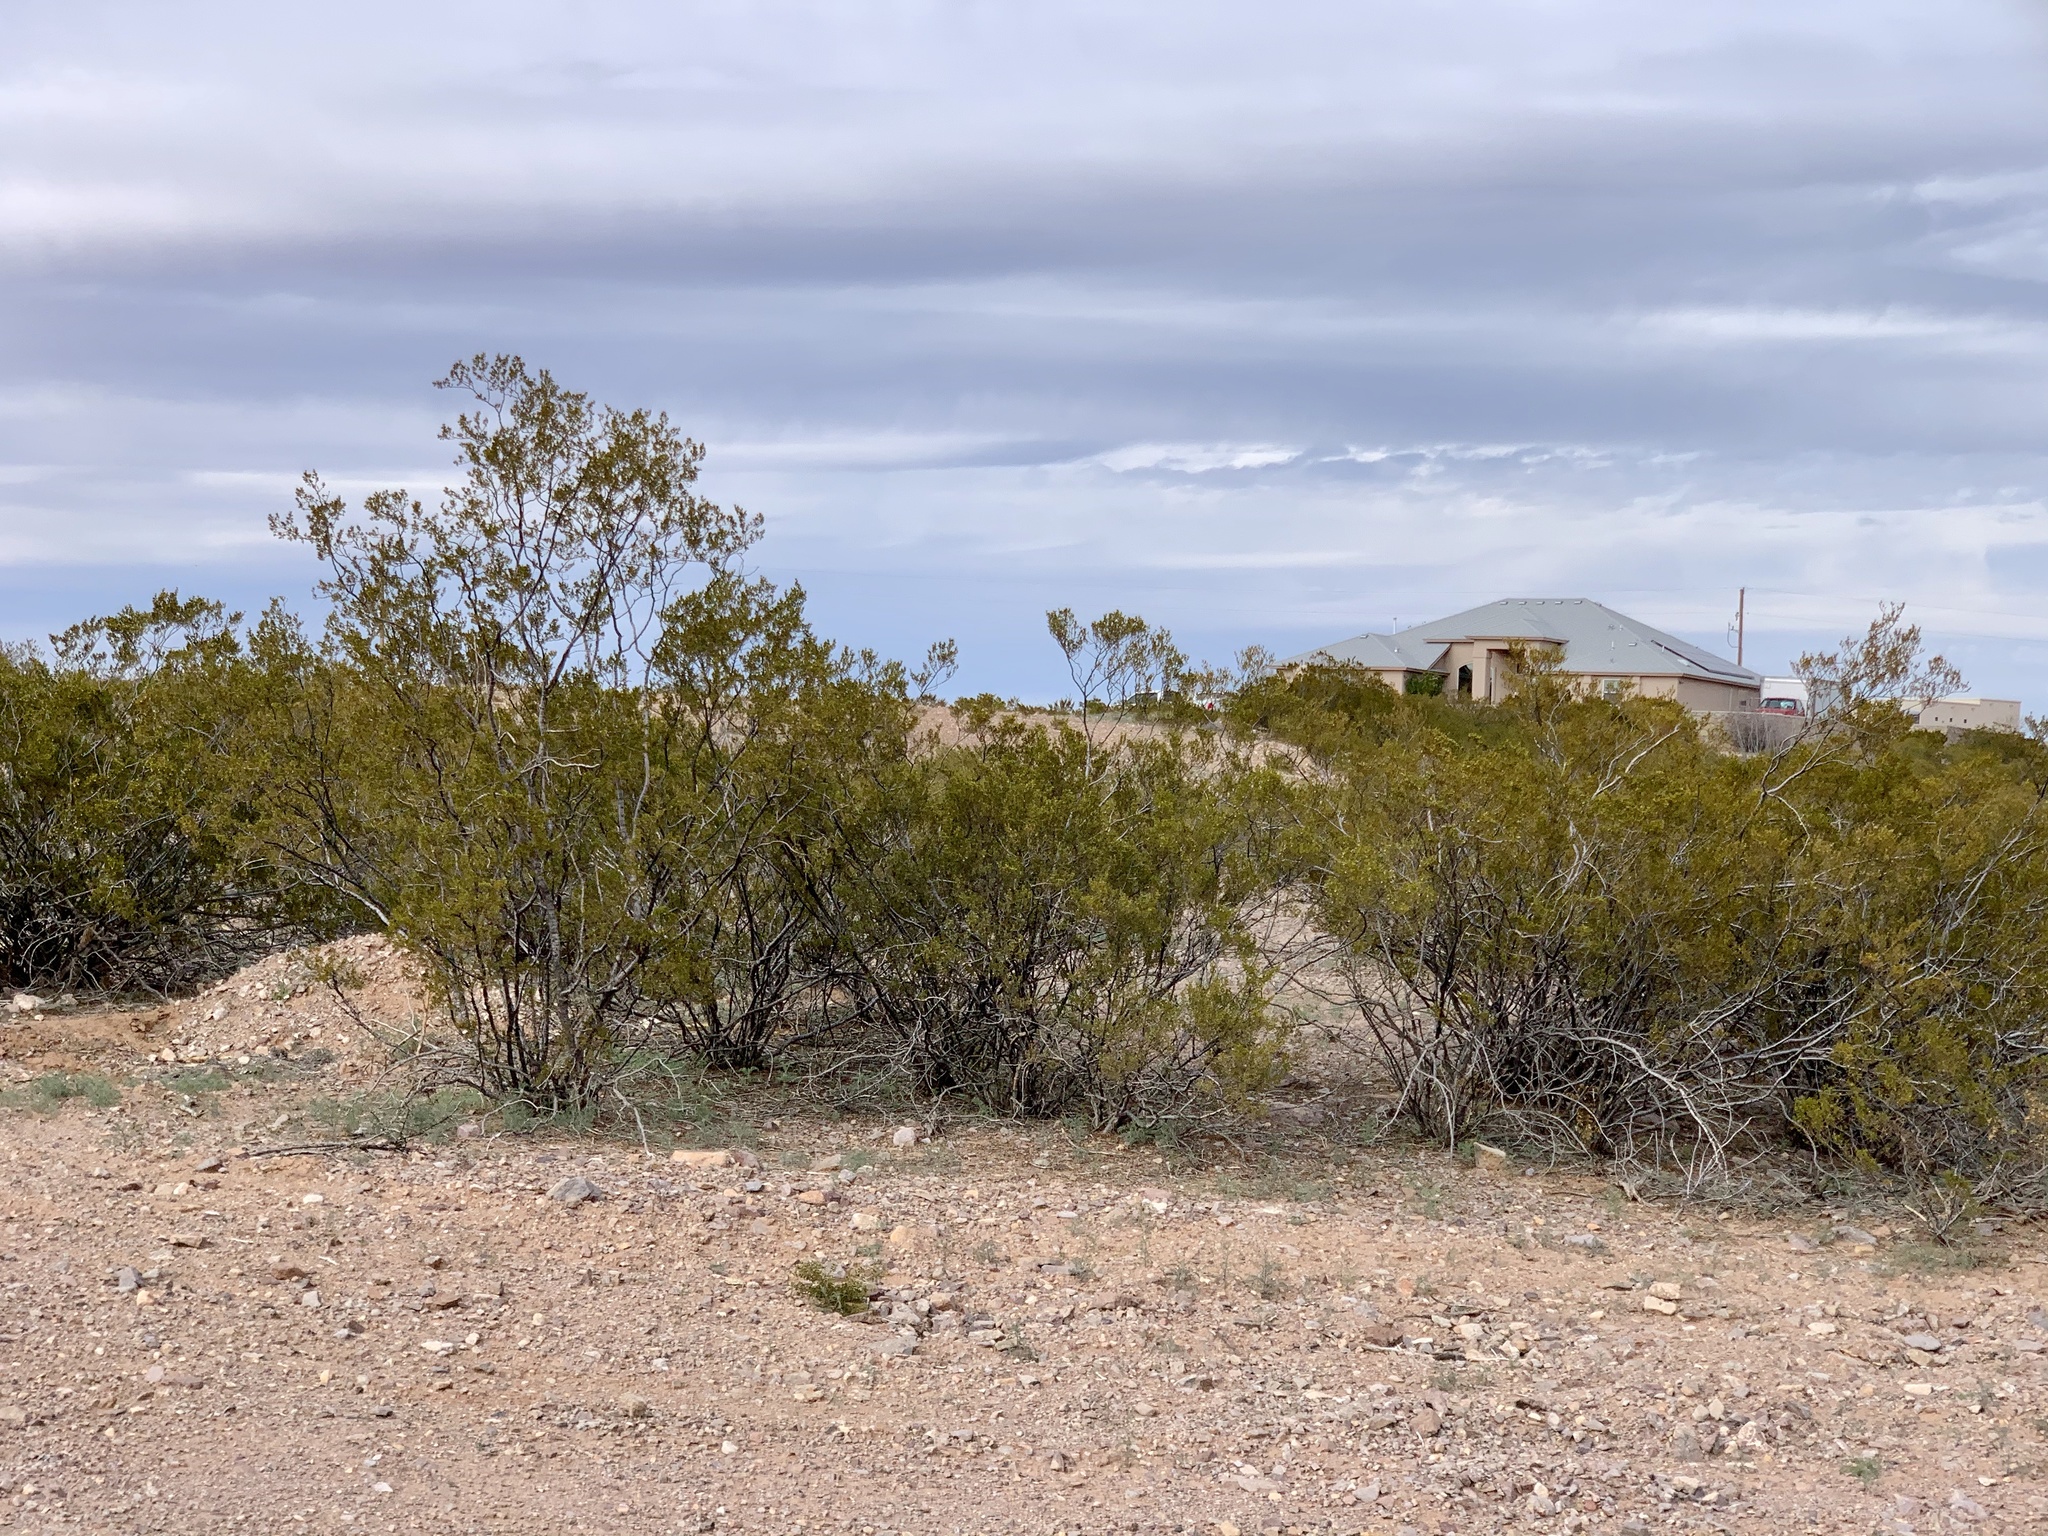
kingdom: Plantae
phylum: Tracheophyta
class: Magnoliopsida
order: Zygophyllales
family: Zygophyllaceae
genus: Larrea
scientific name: Larrea tridentata
